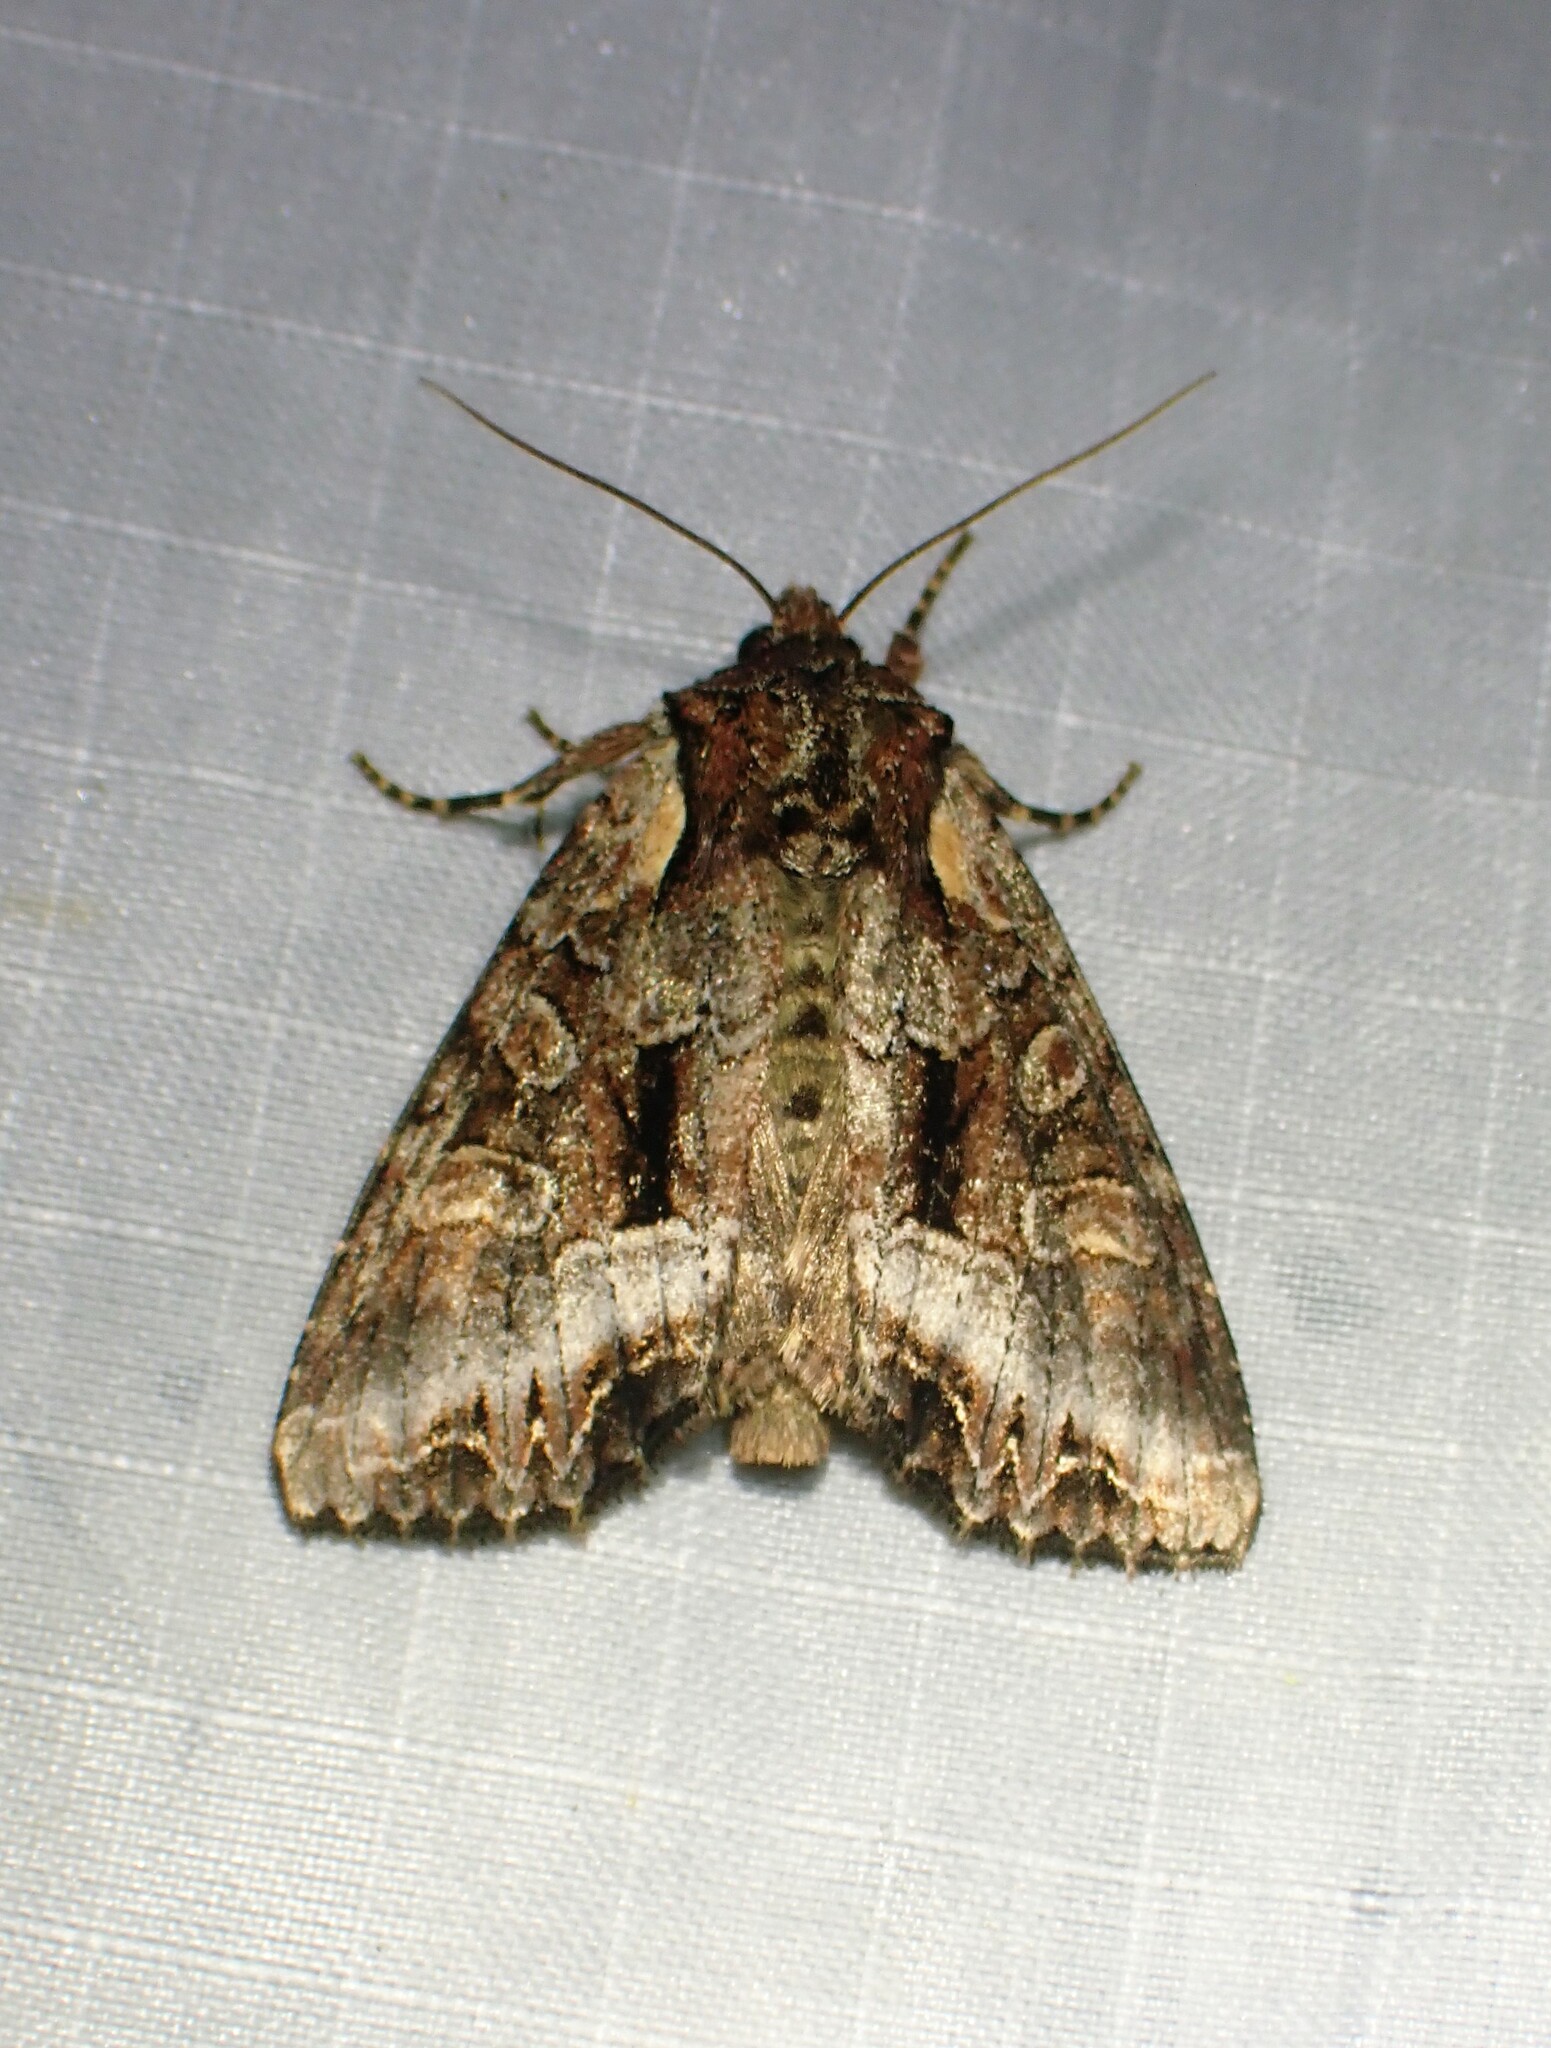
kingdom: Animalia
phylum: Arthropoda
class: Insecta
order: Lepidoptera
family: Noctuidae
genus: Lacanobia
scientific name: Lacanobia grandis
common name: Grand arches moth
